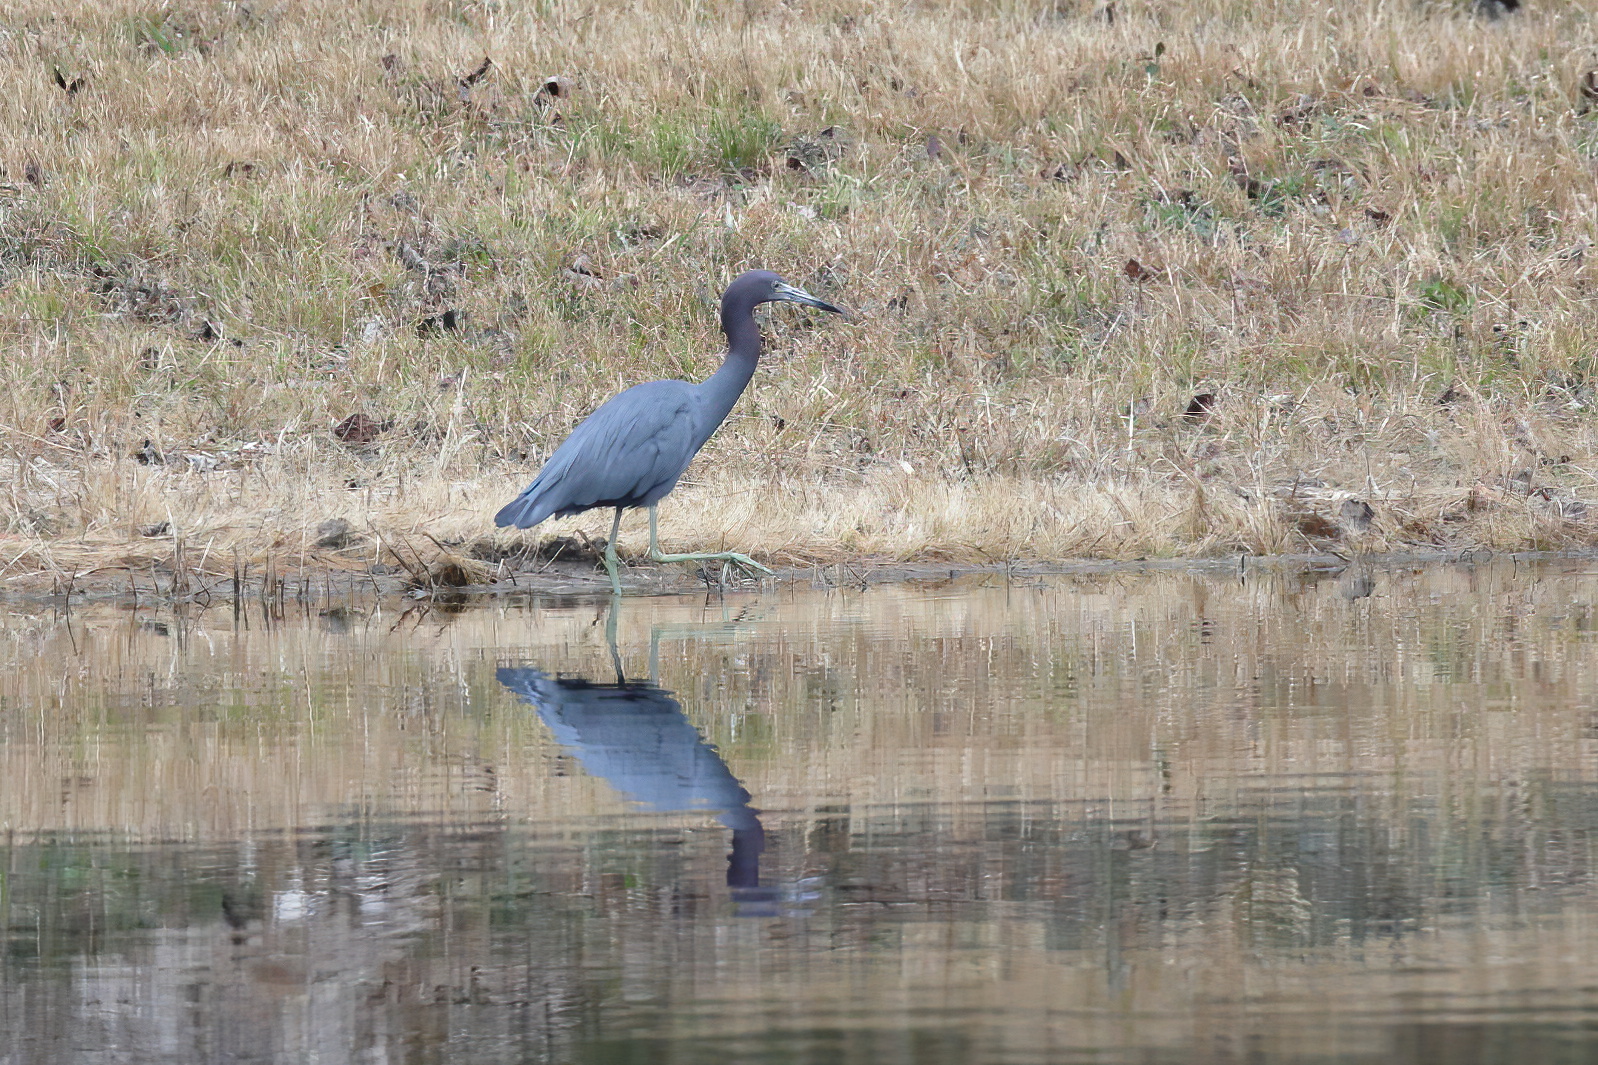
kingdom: Animalia
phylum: Chordata
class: Aves
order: Pelecaniformes
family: Ardeidae
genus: Egretta
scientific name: Egretta caerulea
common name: Little blue heron
